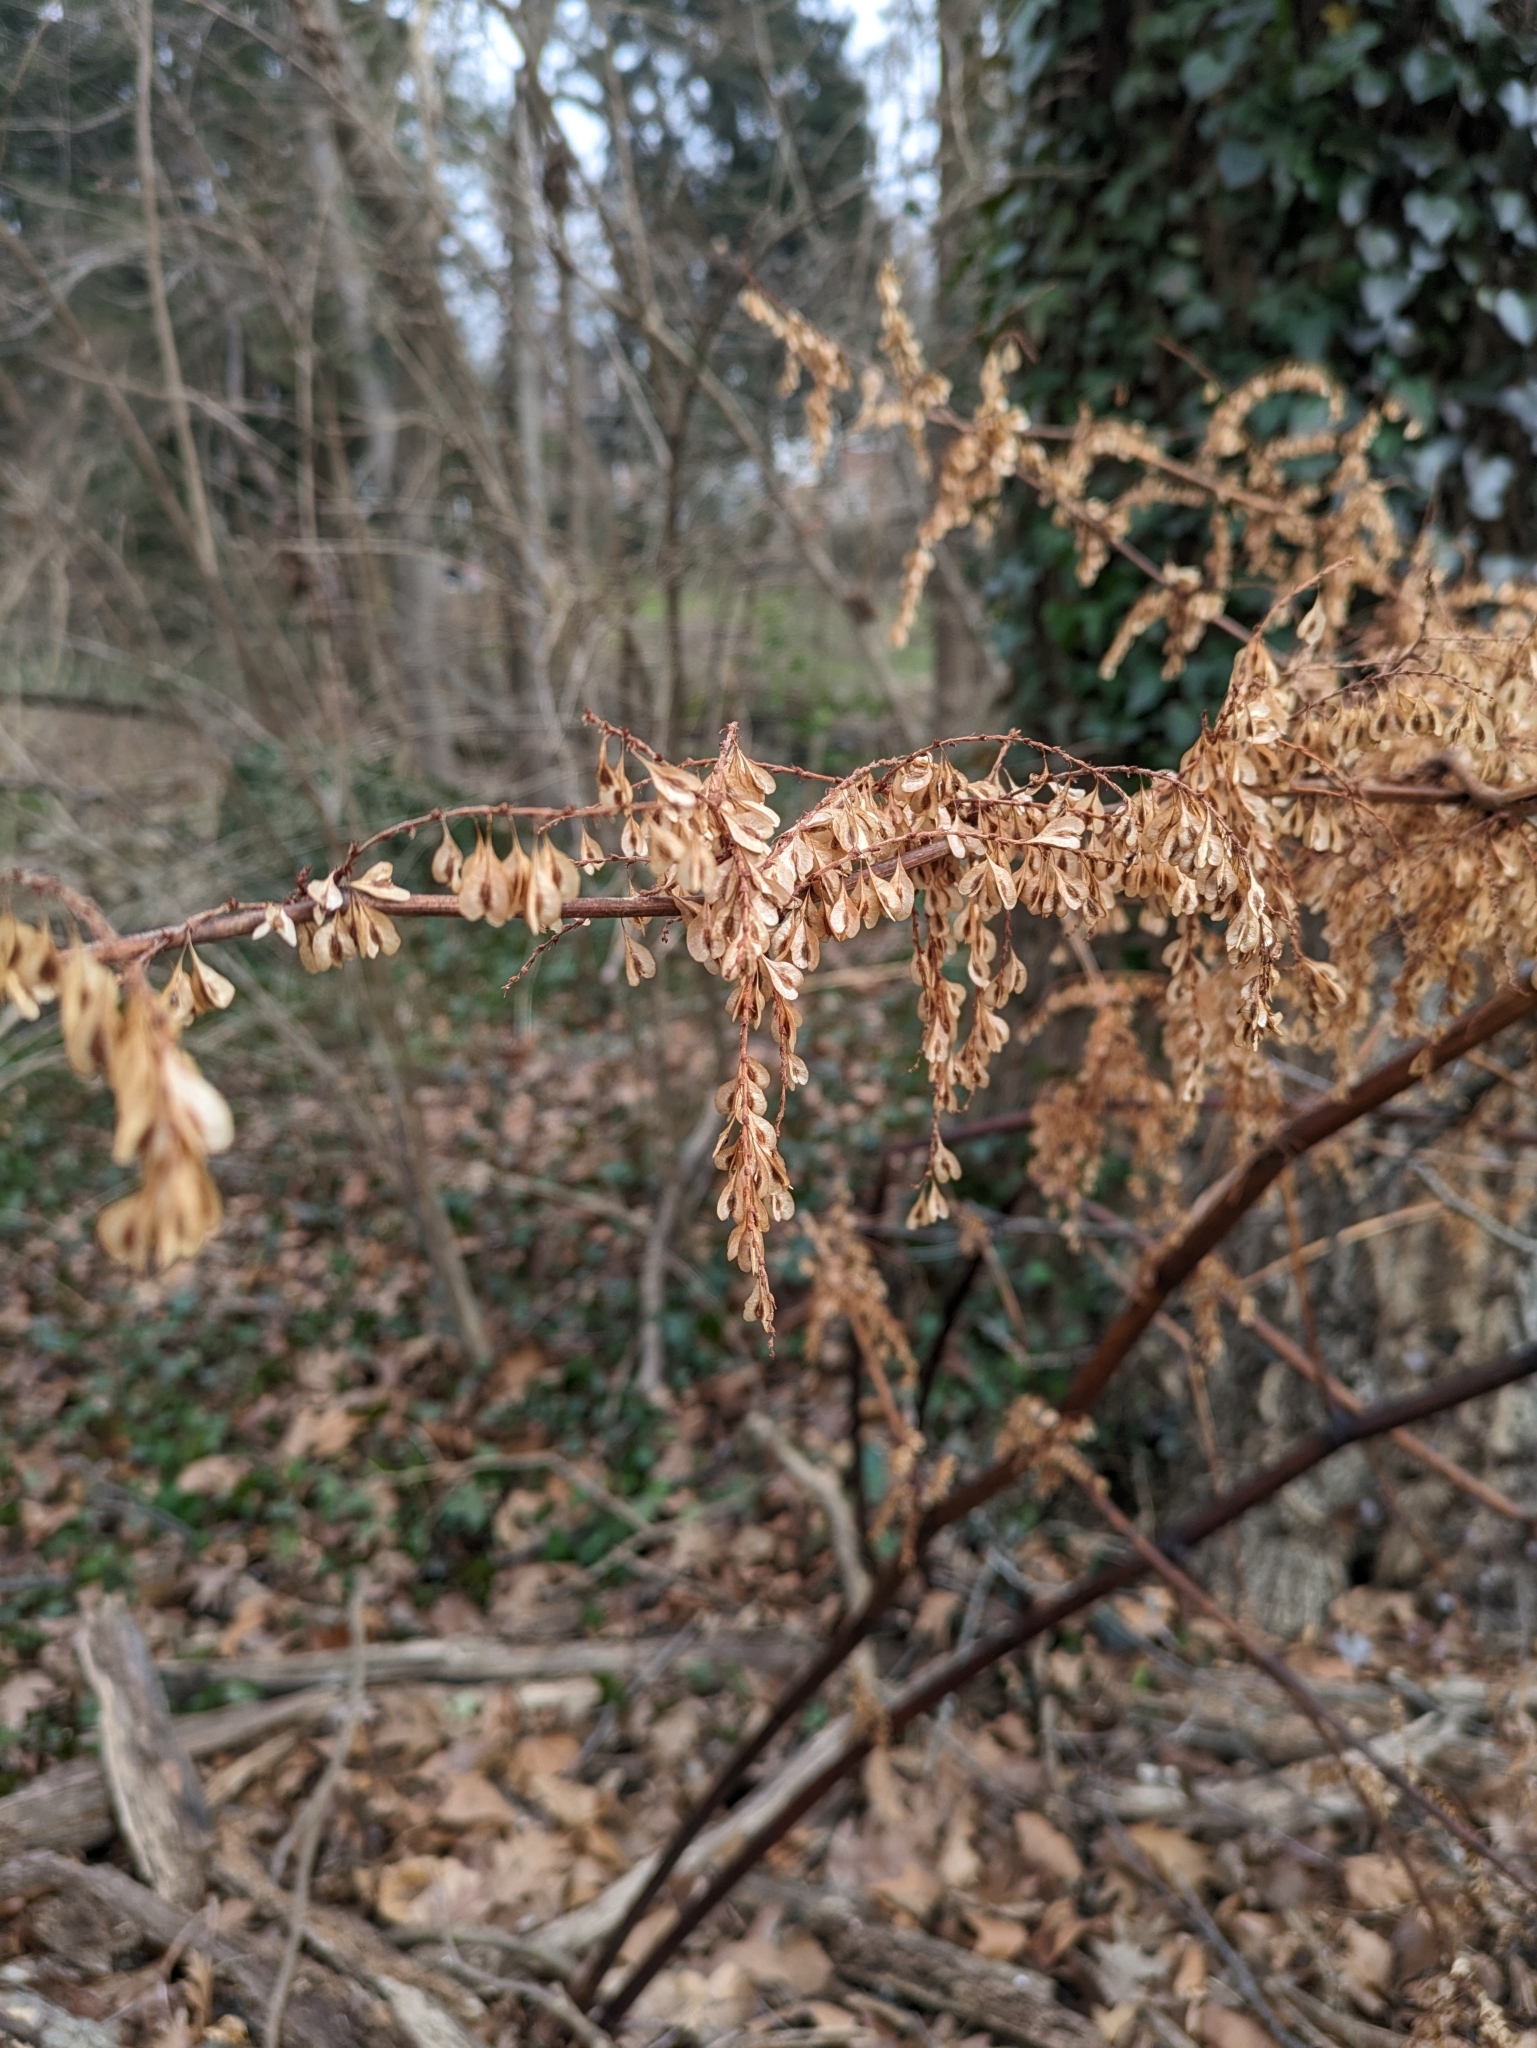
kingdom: Plantae
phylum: Tracheophyta
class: Magnoliopsida
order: Caryophyllales
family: Polygonaceae
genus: Reynoutria
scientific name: Reynoutria japonica
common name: Japanese knotweed
